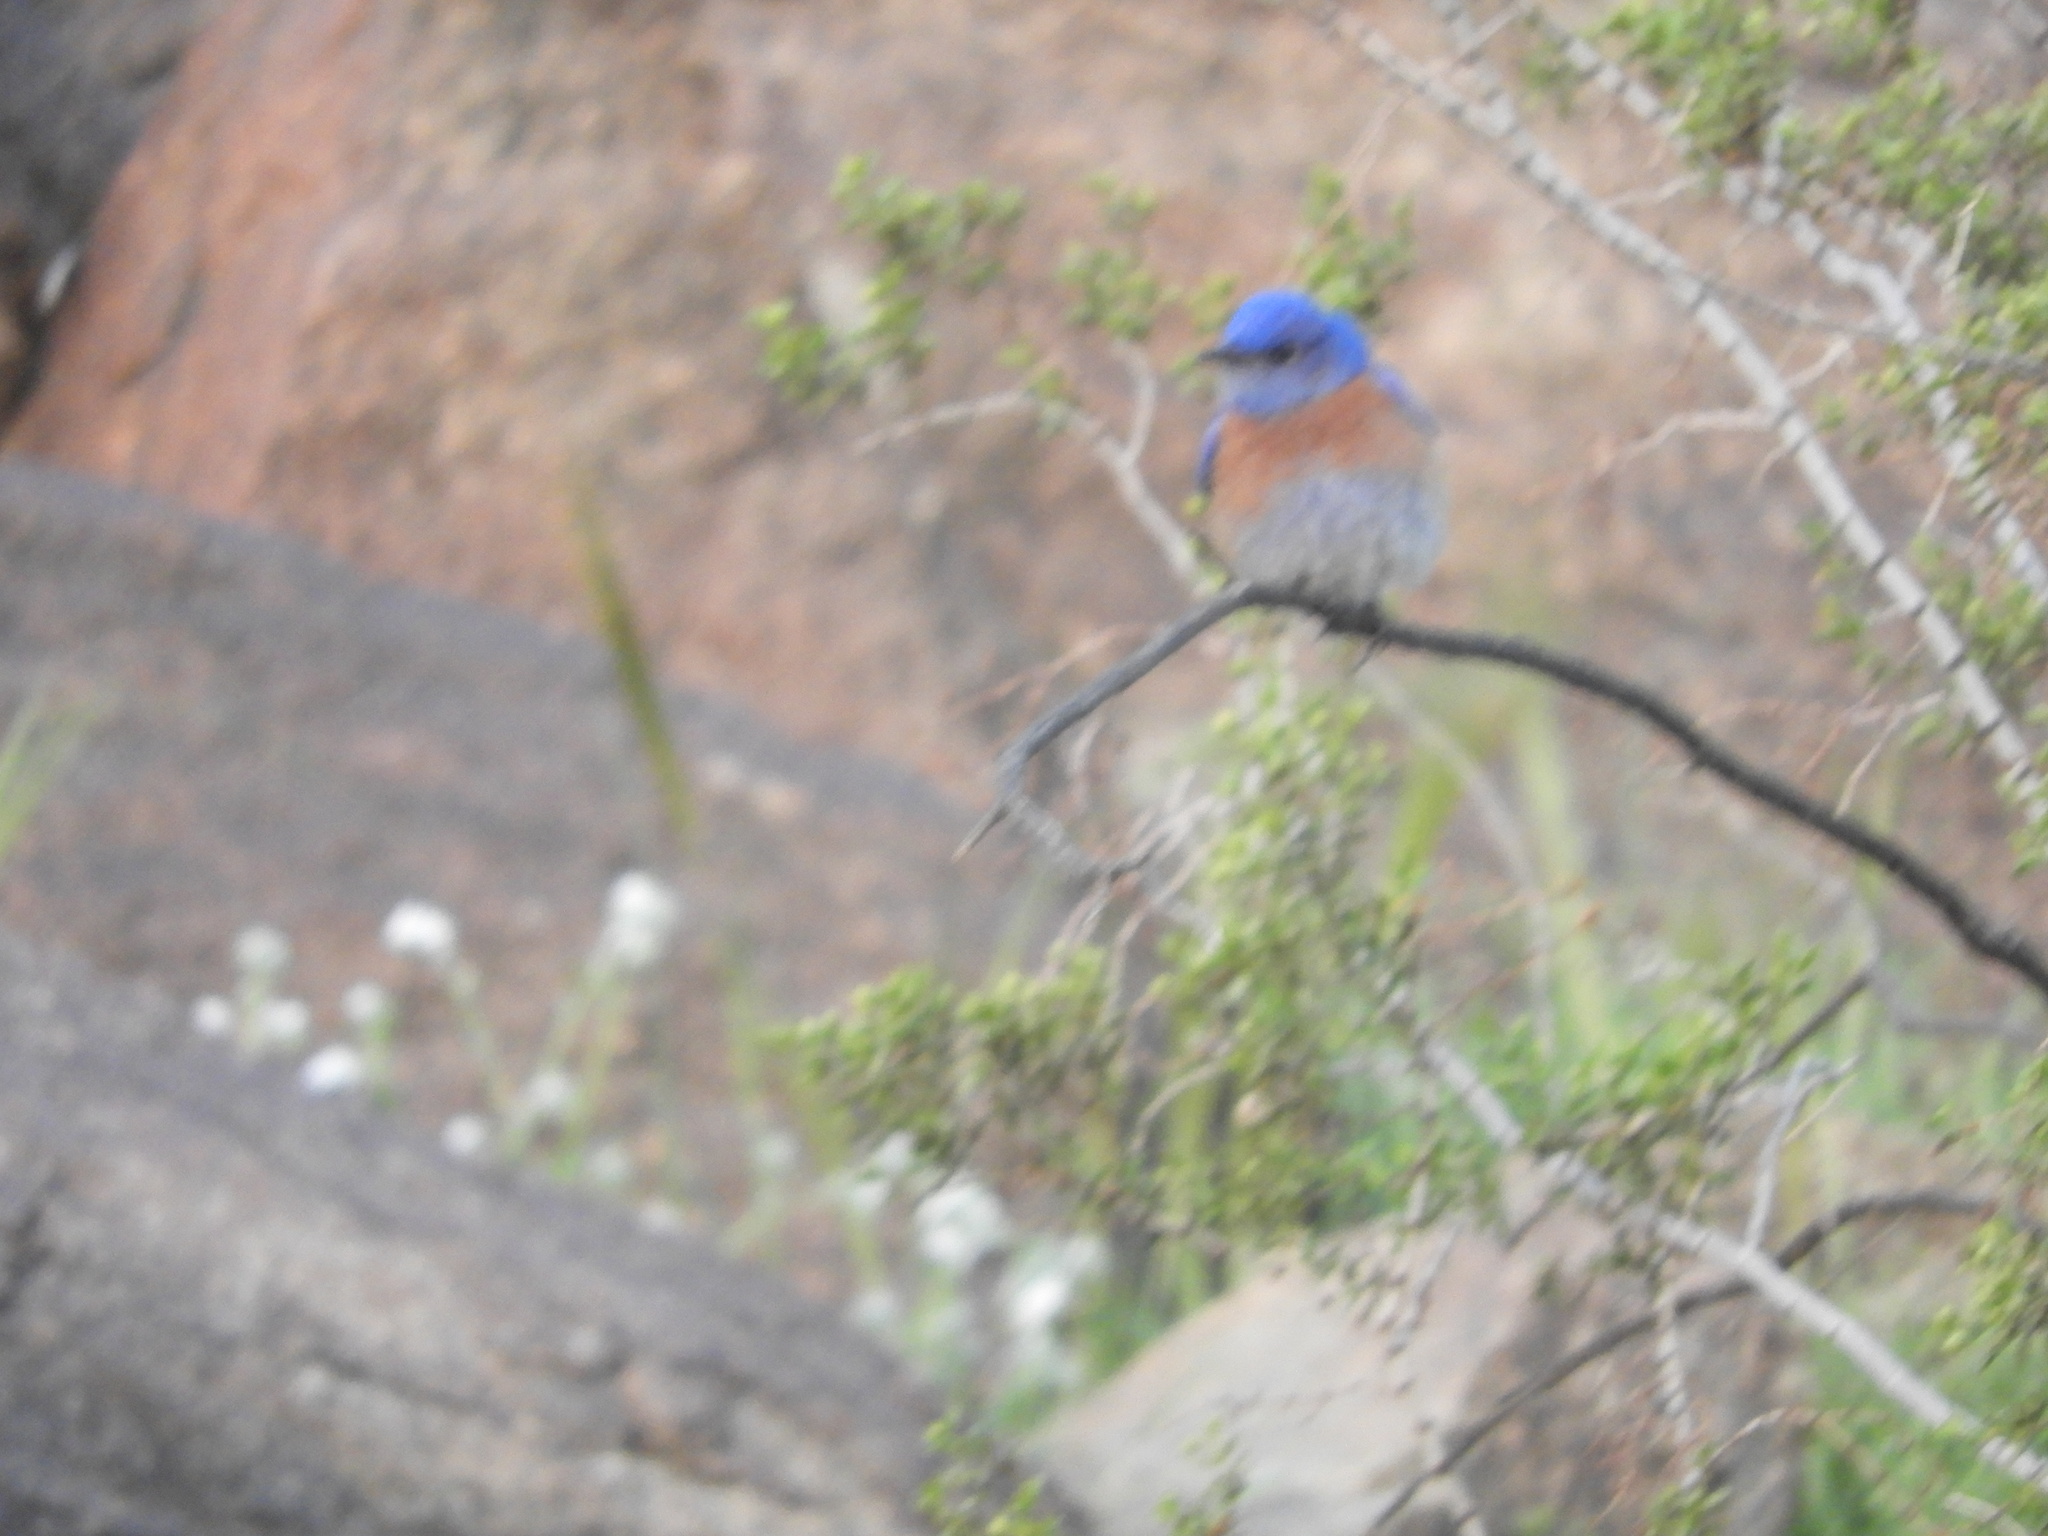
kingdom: Animalia
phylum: Chordata
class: Aves
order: Passeriformes
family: Turdidae
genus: Sialia
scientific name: Sialia mexicana
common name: Western bluebird
